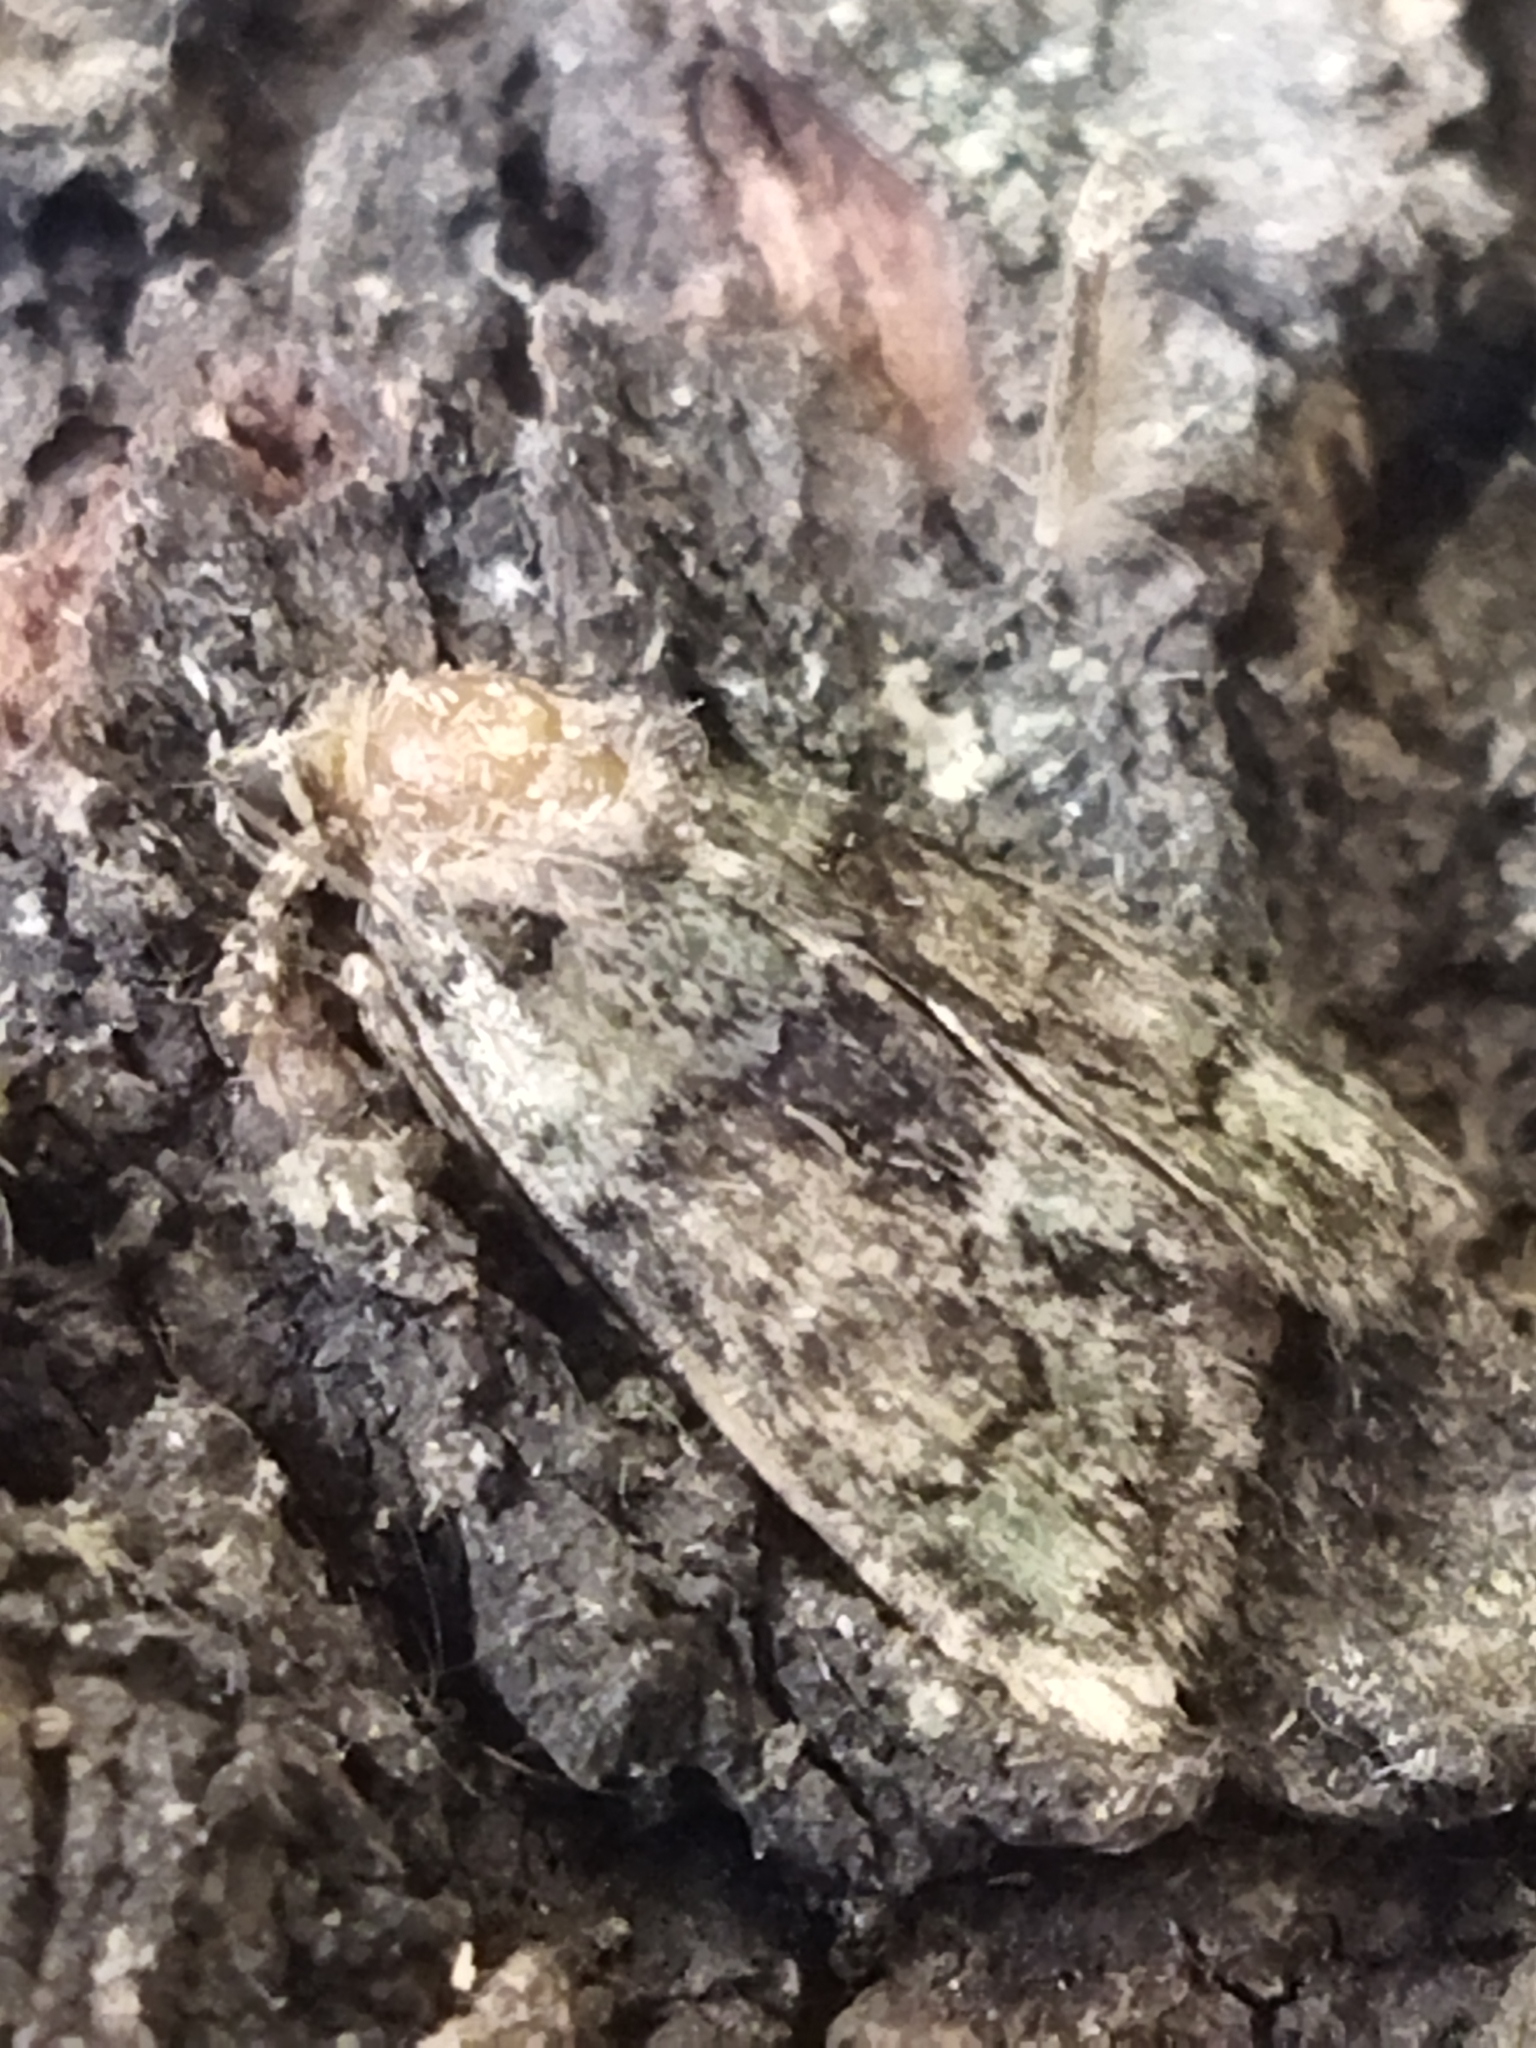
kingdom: Animalia
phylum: Arthropoda
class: Insecta
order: Lepidoptera
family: Noctuidae
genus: Cryphia
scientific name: Cryphia
